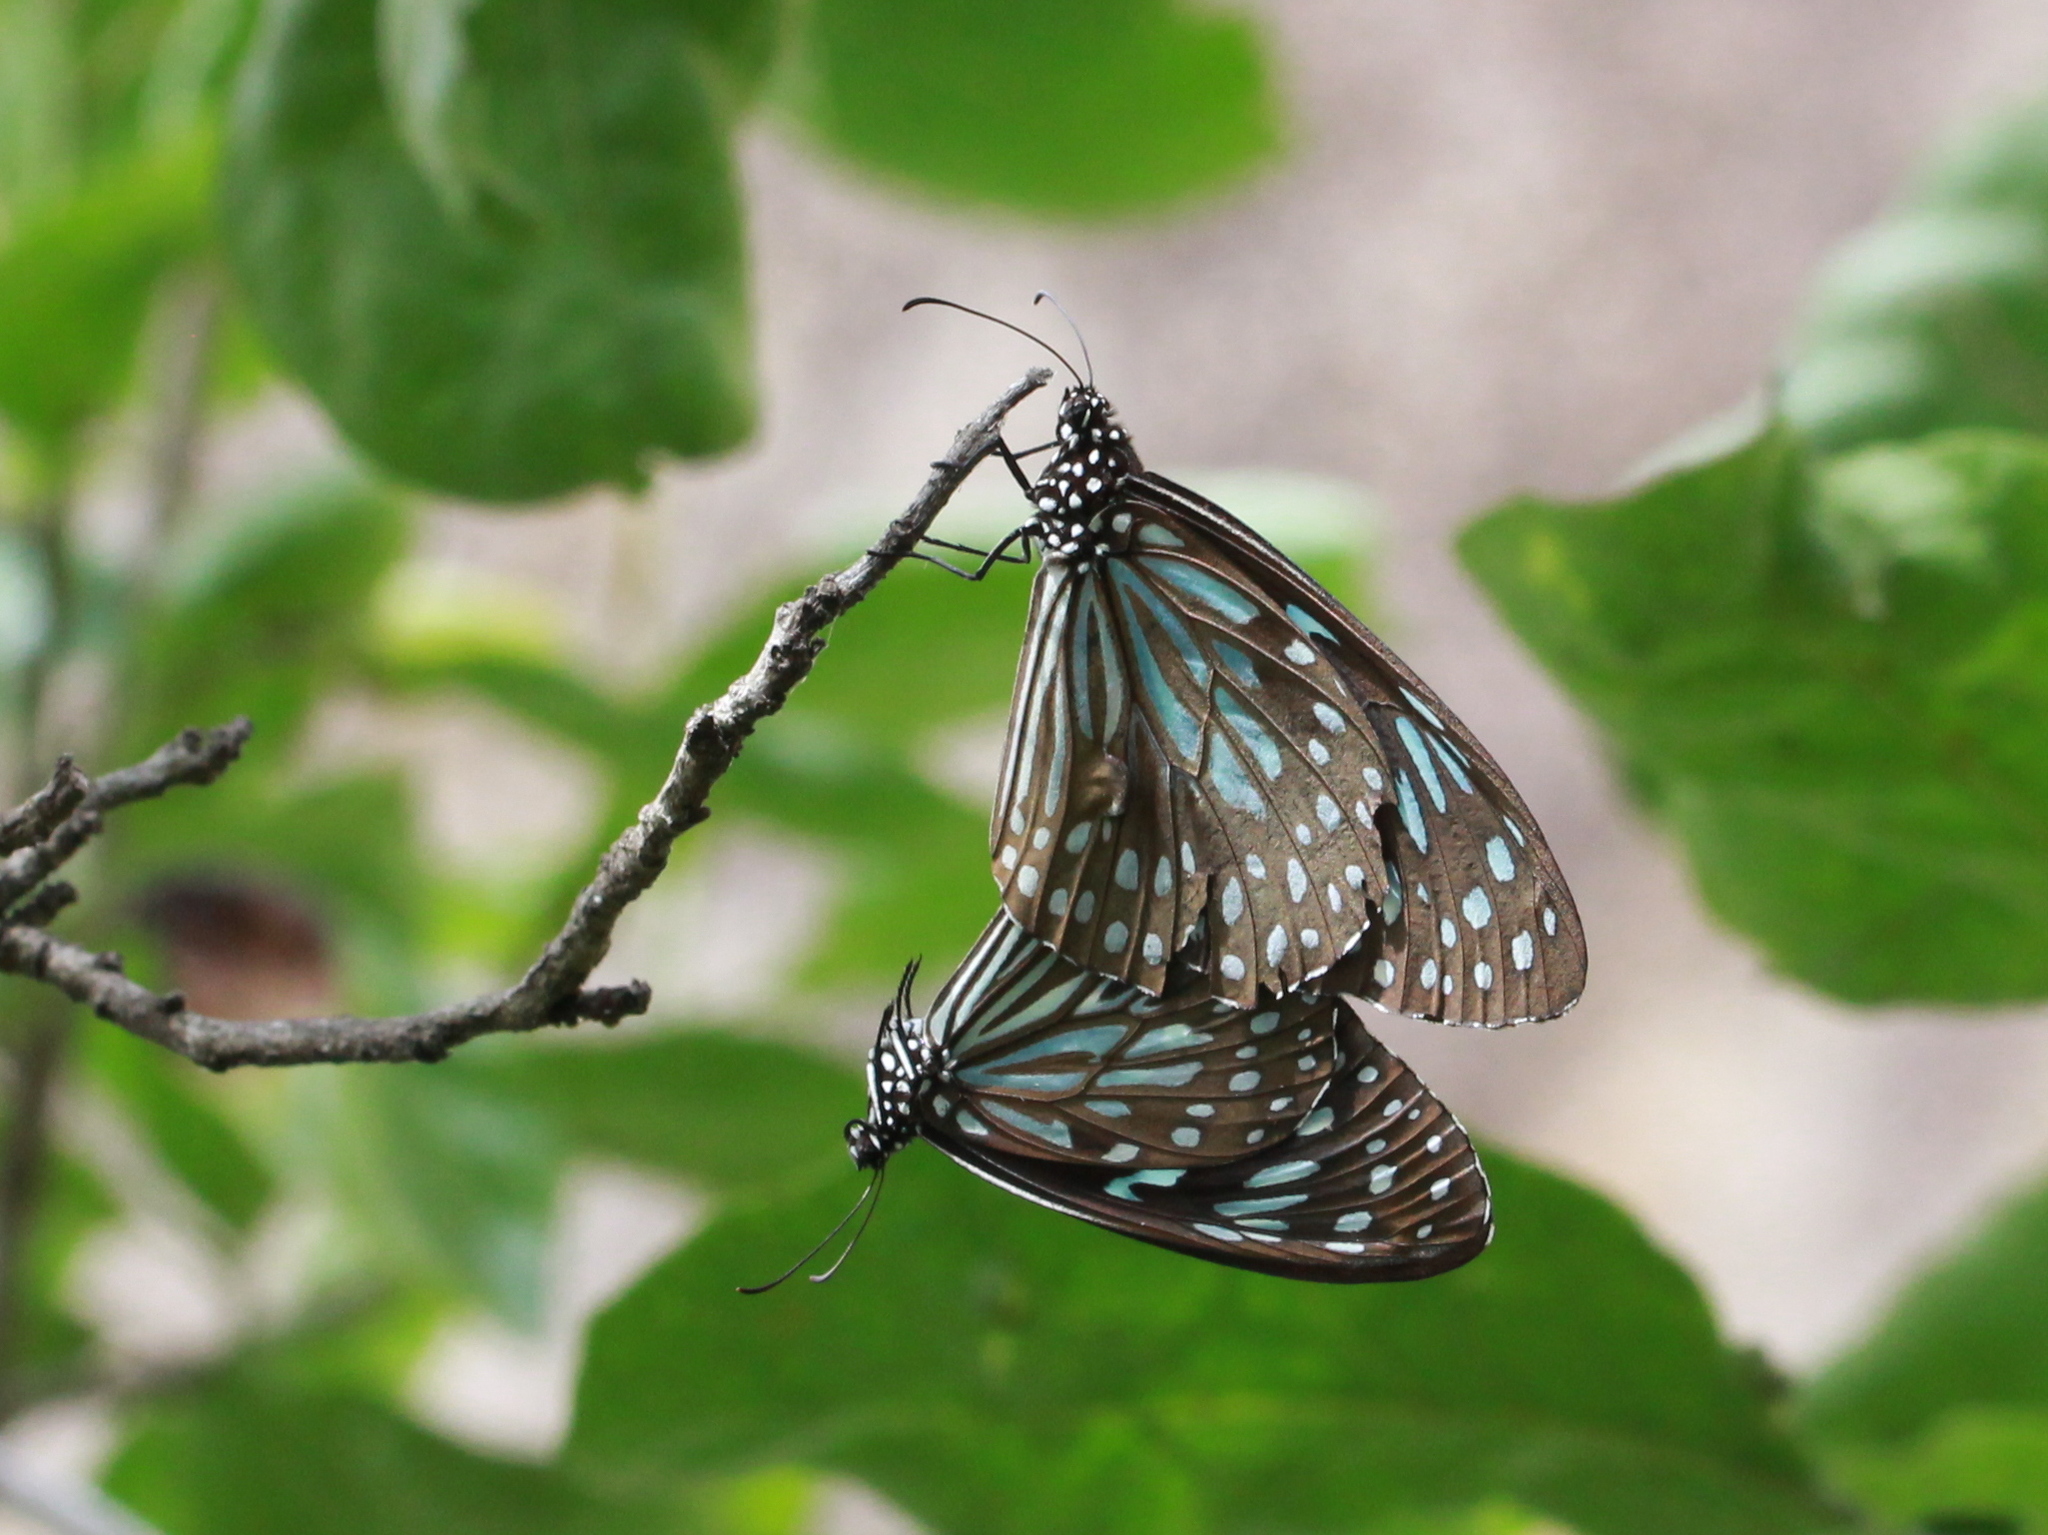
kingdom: Animalia
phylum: Arthropoda
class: Insecta
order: Lepidoptera
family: Nymphalidae
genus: Tirumala
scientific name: Tirumala septentrionis
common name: Dark blue tiger butterfly
